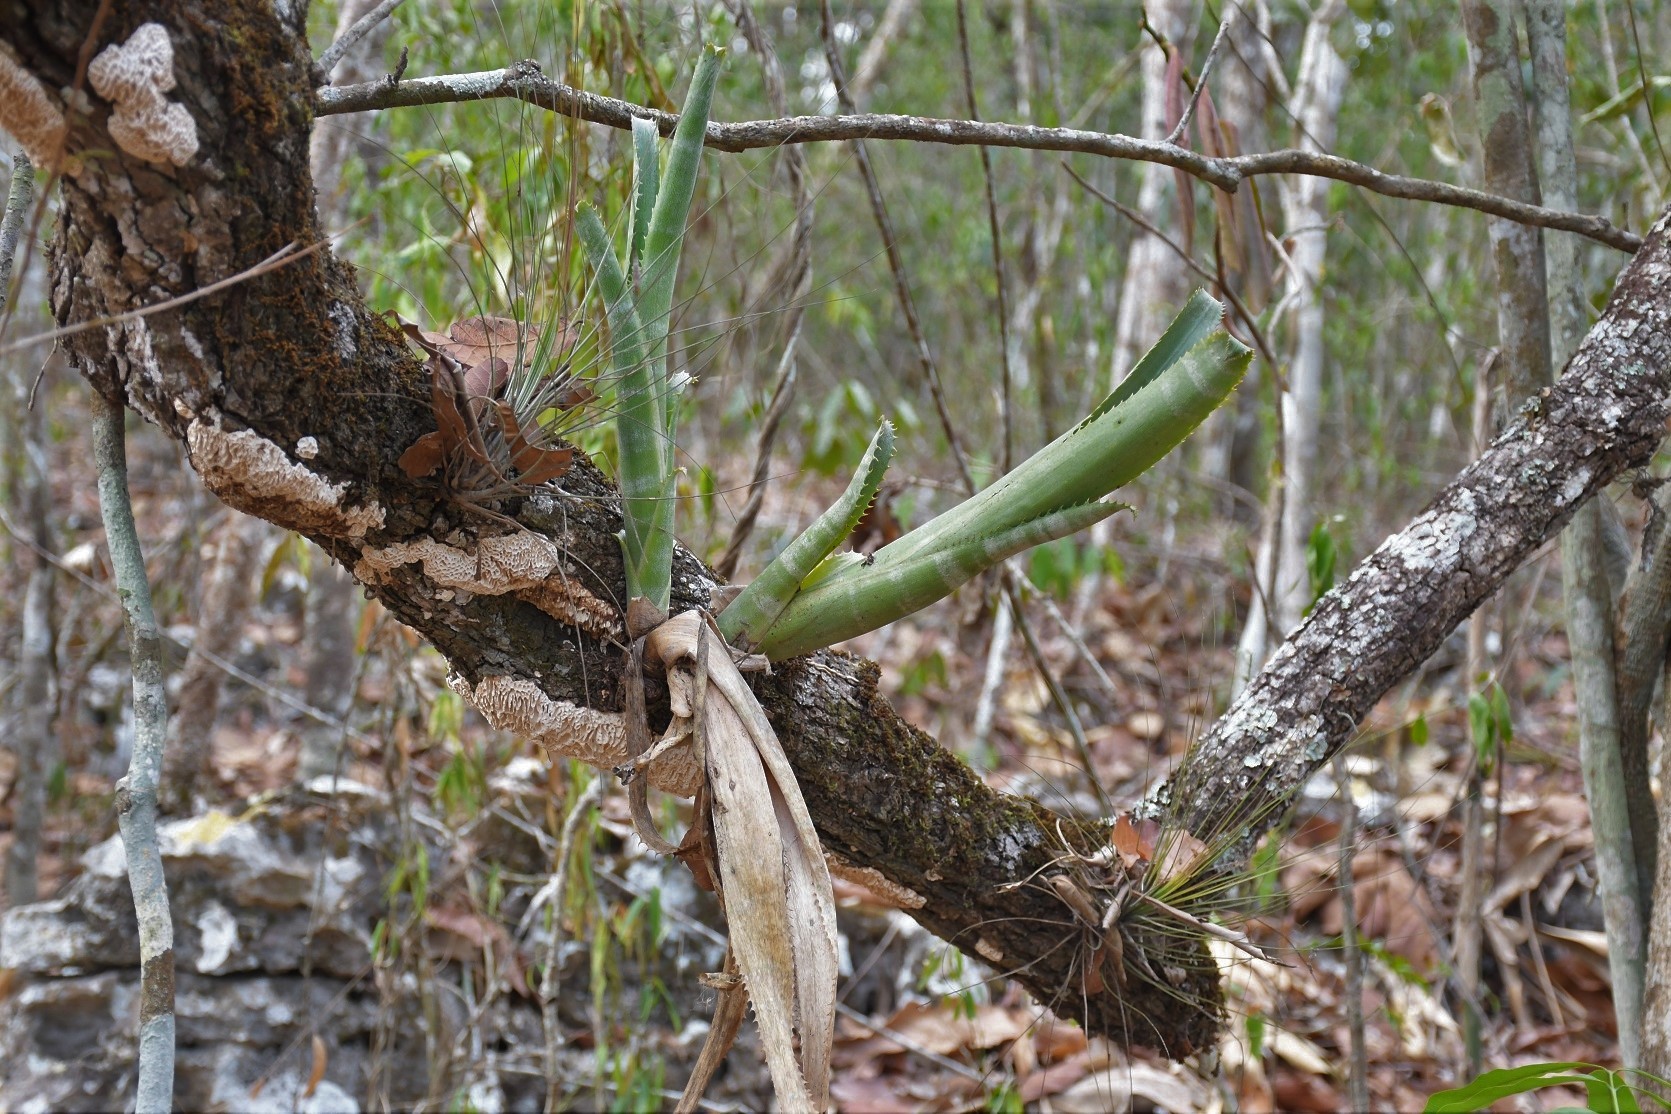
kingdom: Plantae
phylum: Tracheophyta
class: Liliopsida
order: Poales
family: Bromeliaceae
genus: Billbergia
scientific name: Billbergia pallidiflora
